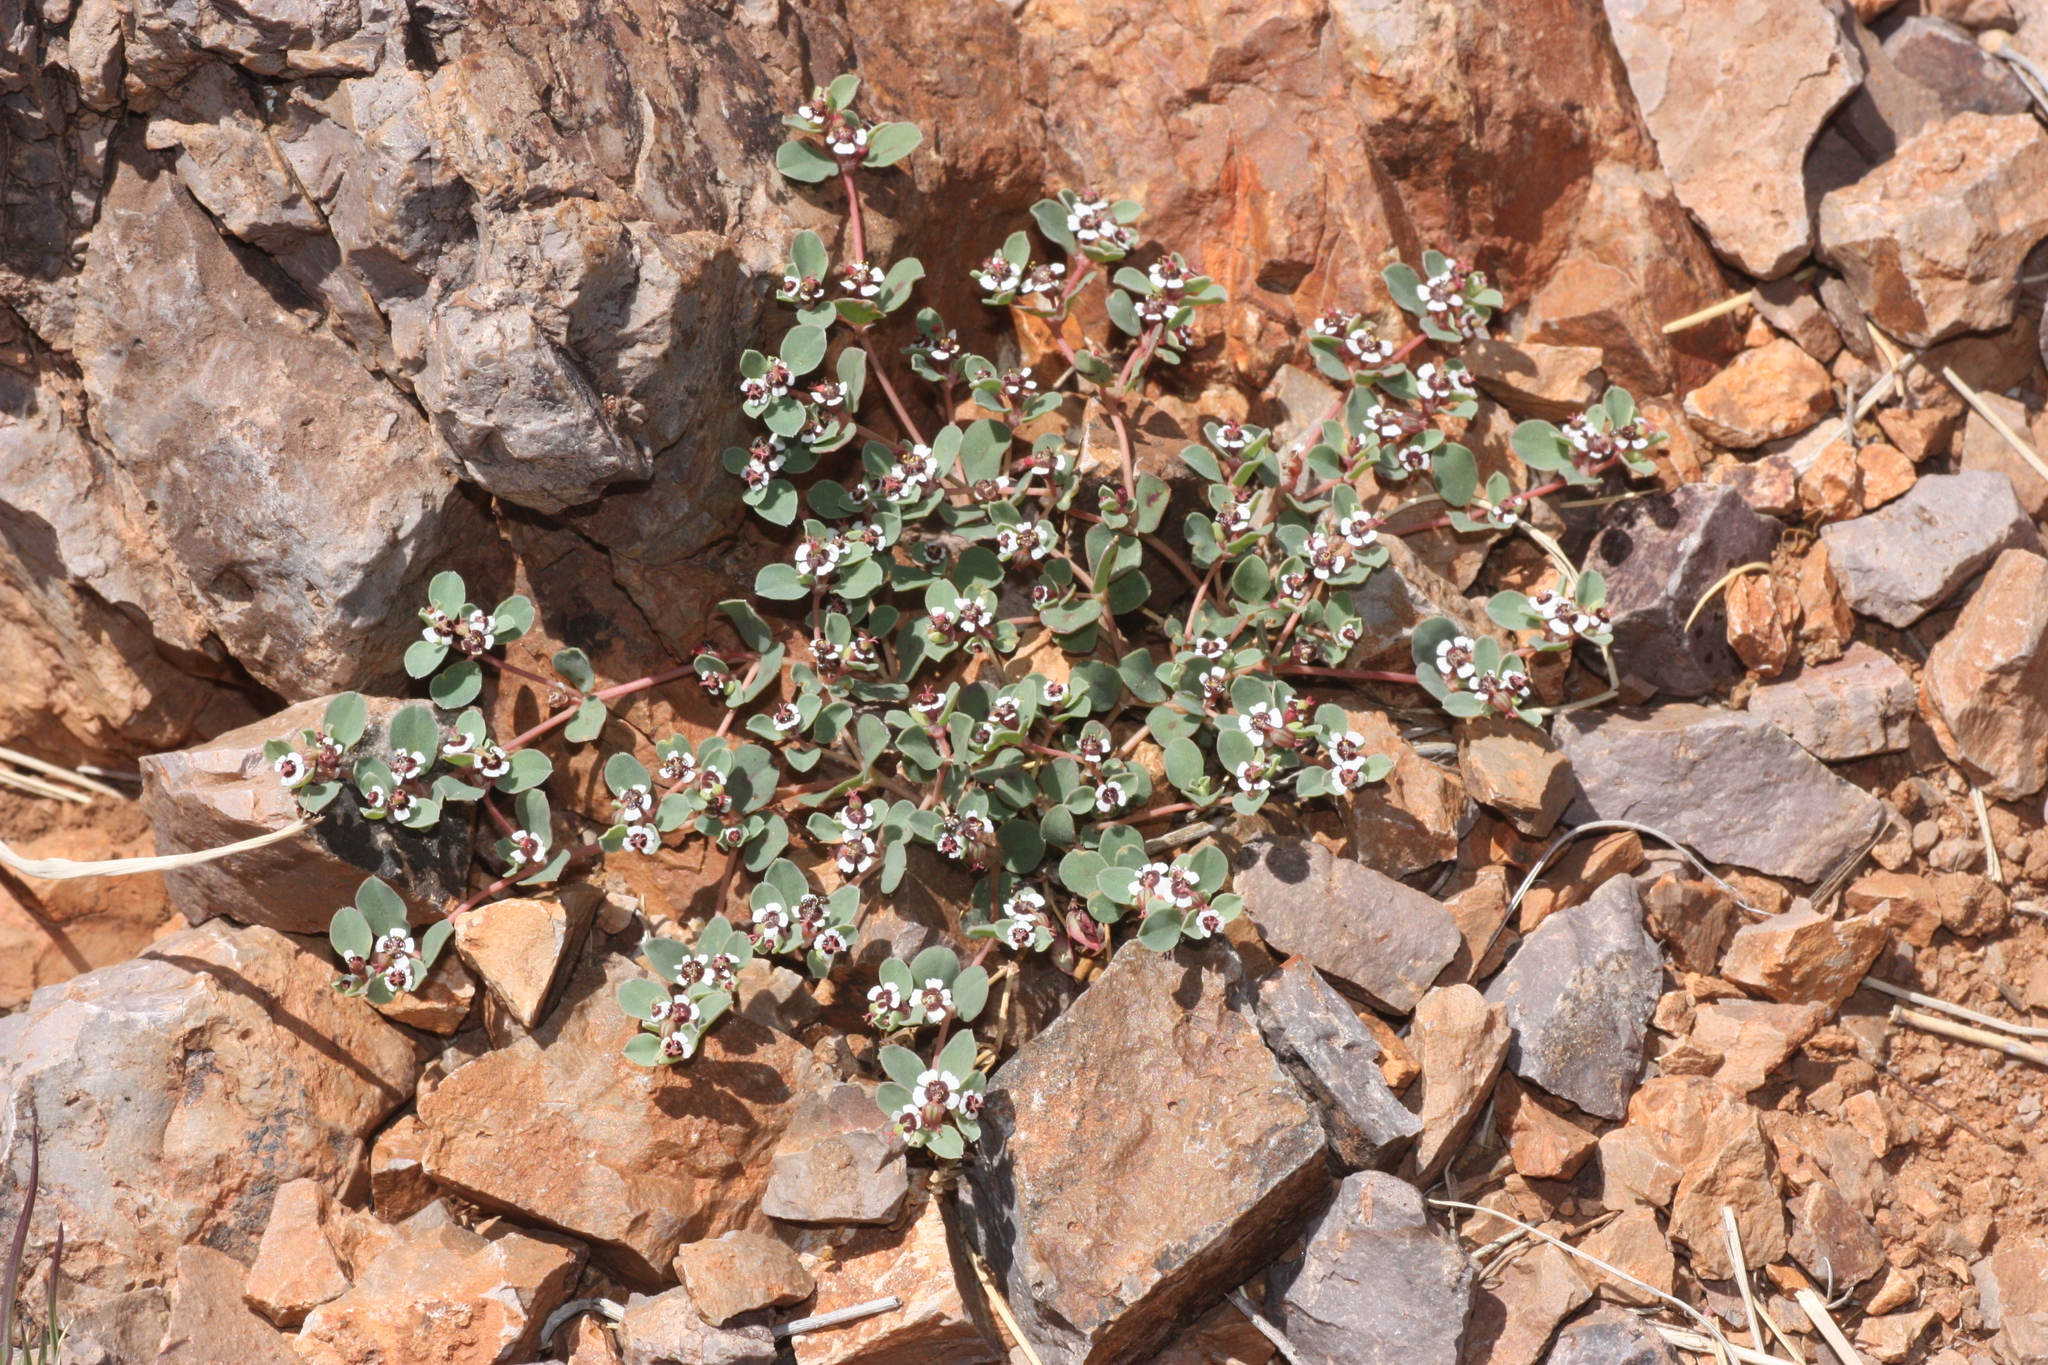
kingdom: Plantae
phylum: Tracheophyta
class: Magnoliopsida
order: Malpighiales
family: Euphorbiaceae
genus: Euphorbia
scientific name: Euphorbia albomarginata
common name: Whitemargin sandmat
